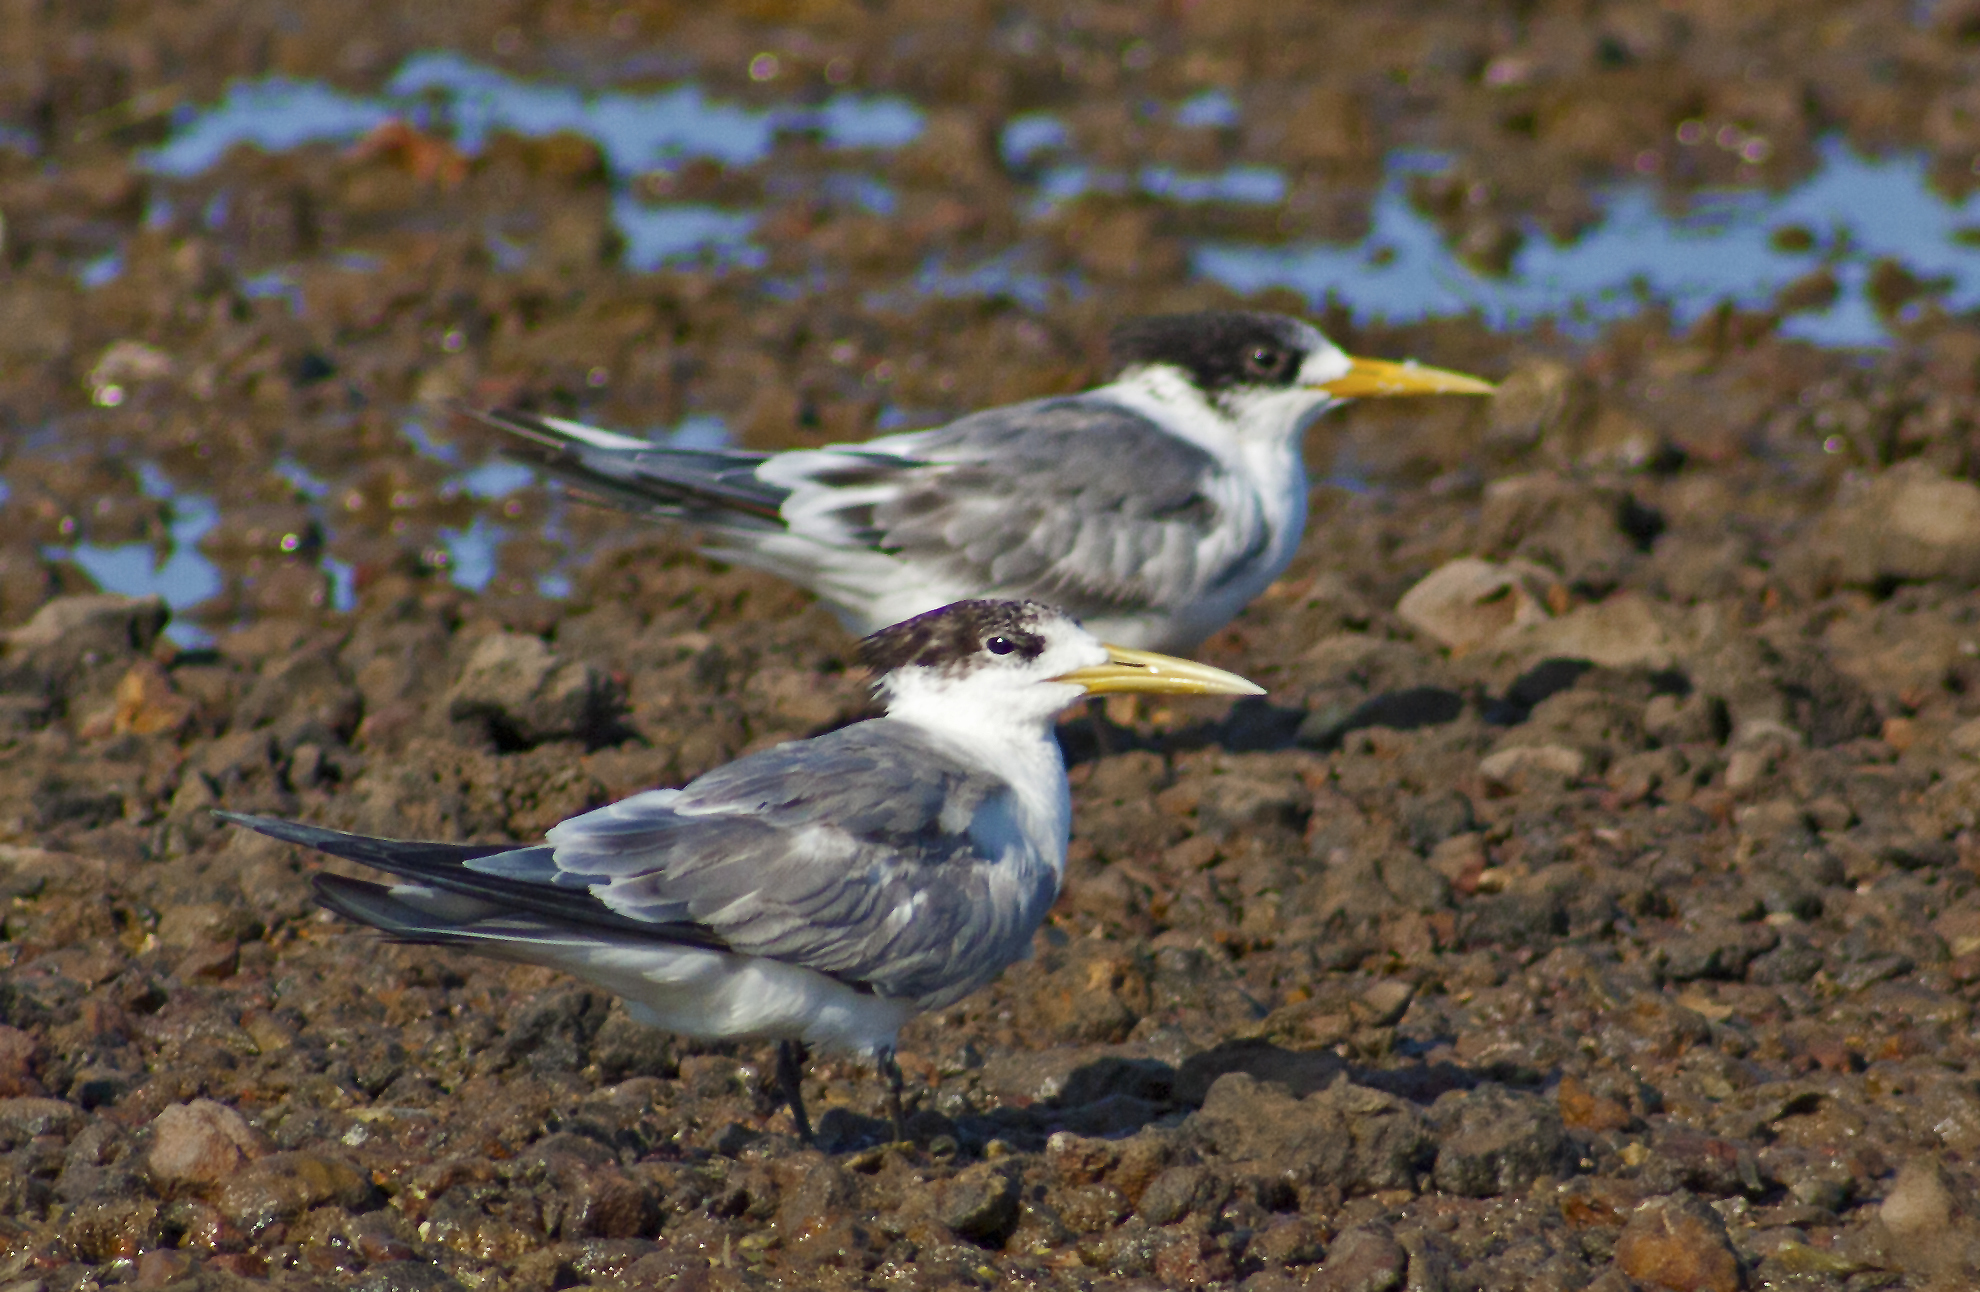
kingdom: Animalia
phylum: Chordata
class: Aves
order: Charadriiformes
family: Laridae
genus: Thalasseus
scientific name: Thalasseus bergii
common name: Greater crested tern
